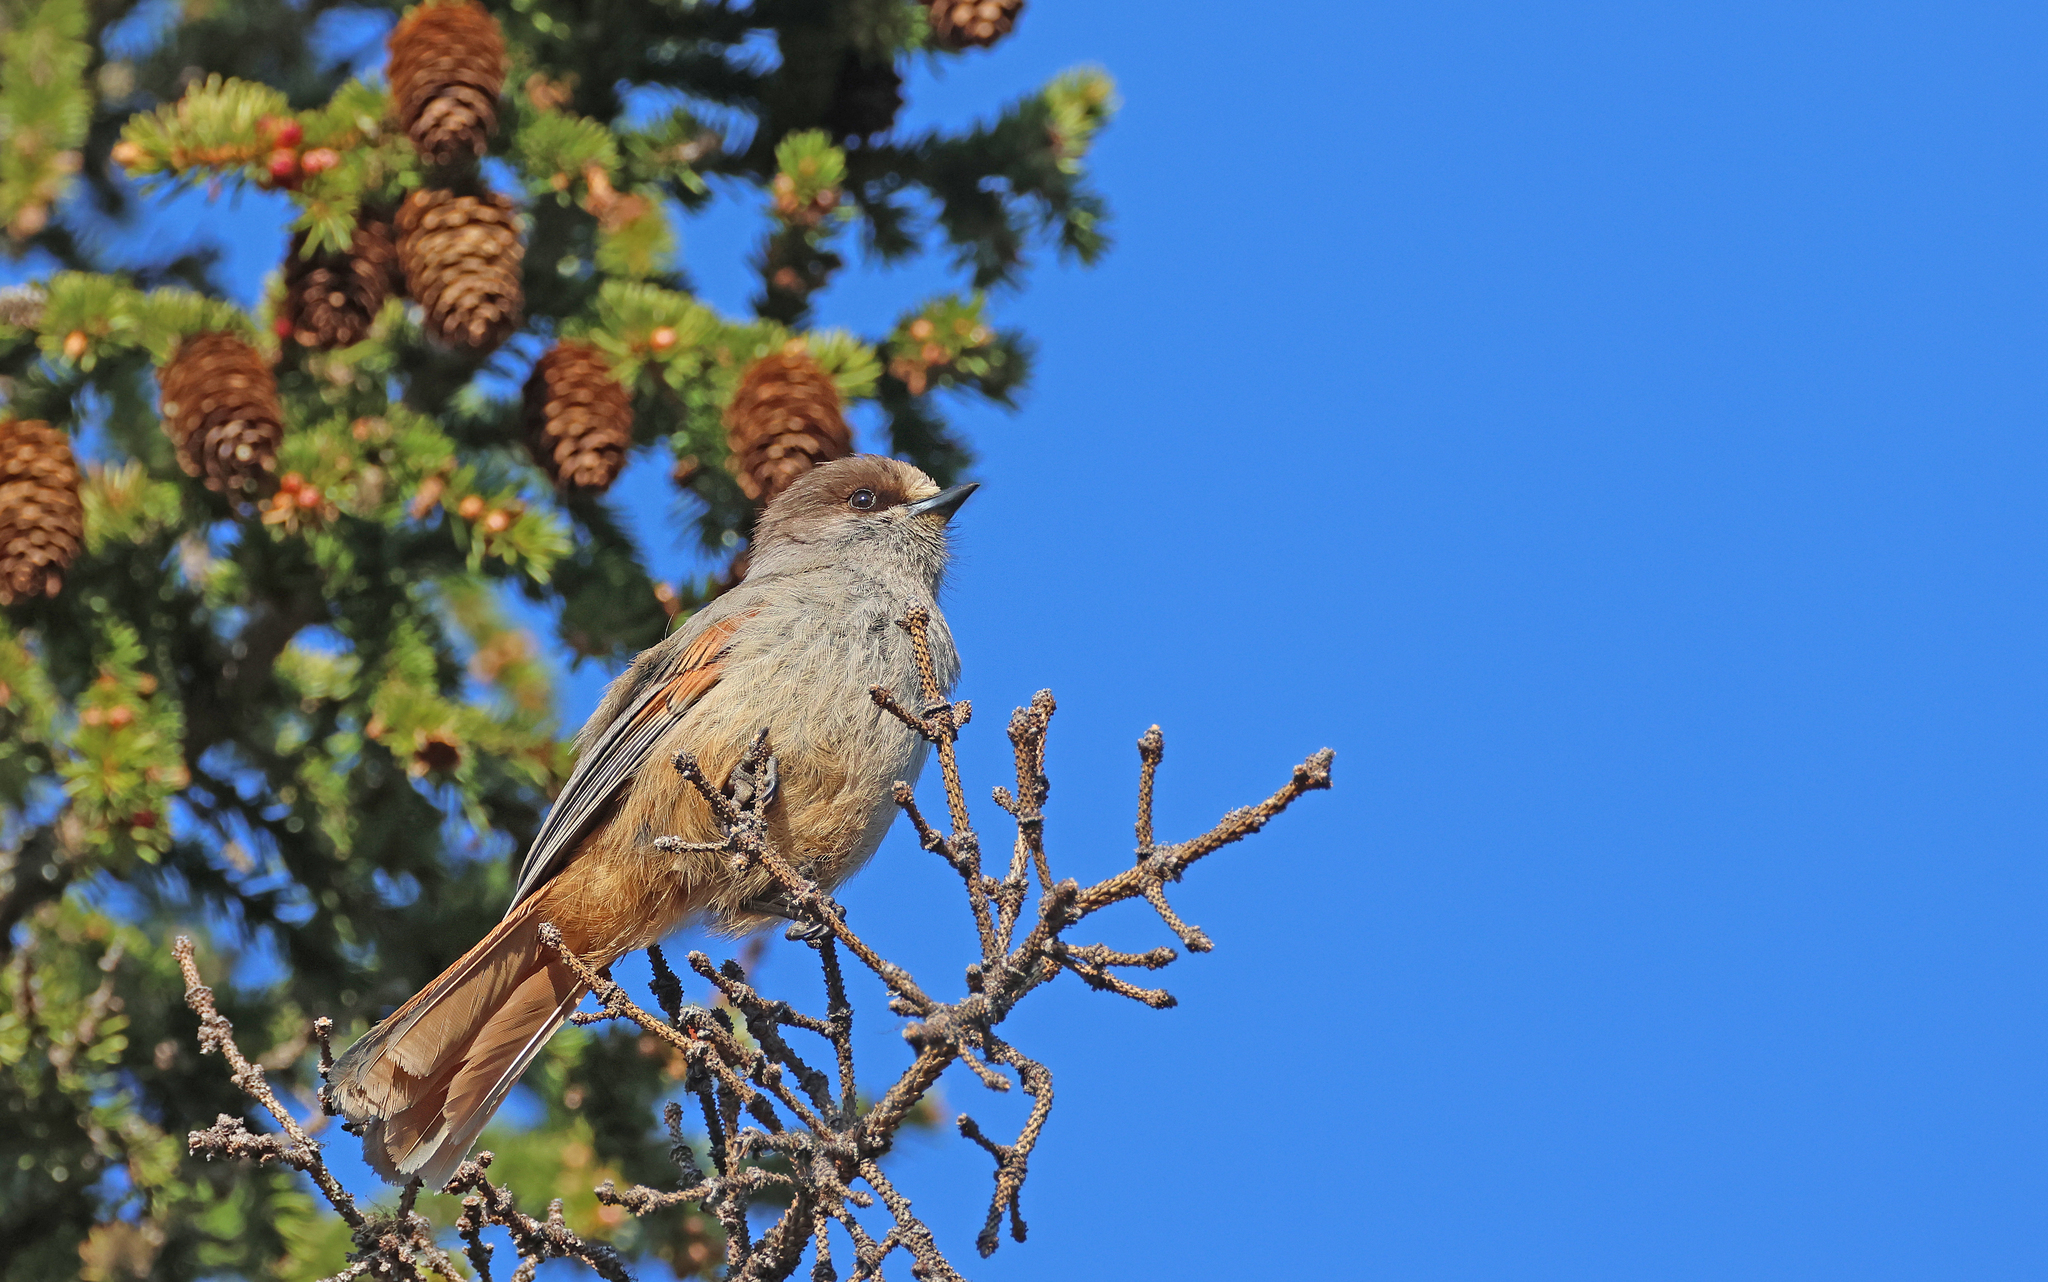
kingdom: Animalia
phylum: Chordata
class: Aves
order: Passeriformes
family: Corvidae
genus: Perisoreus
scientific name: Perisoreus infaustus
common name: Siberian jay
